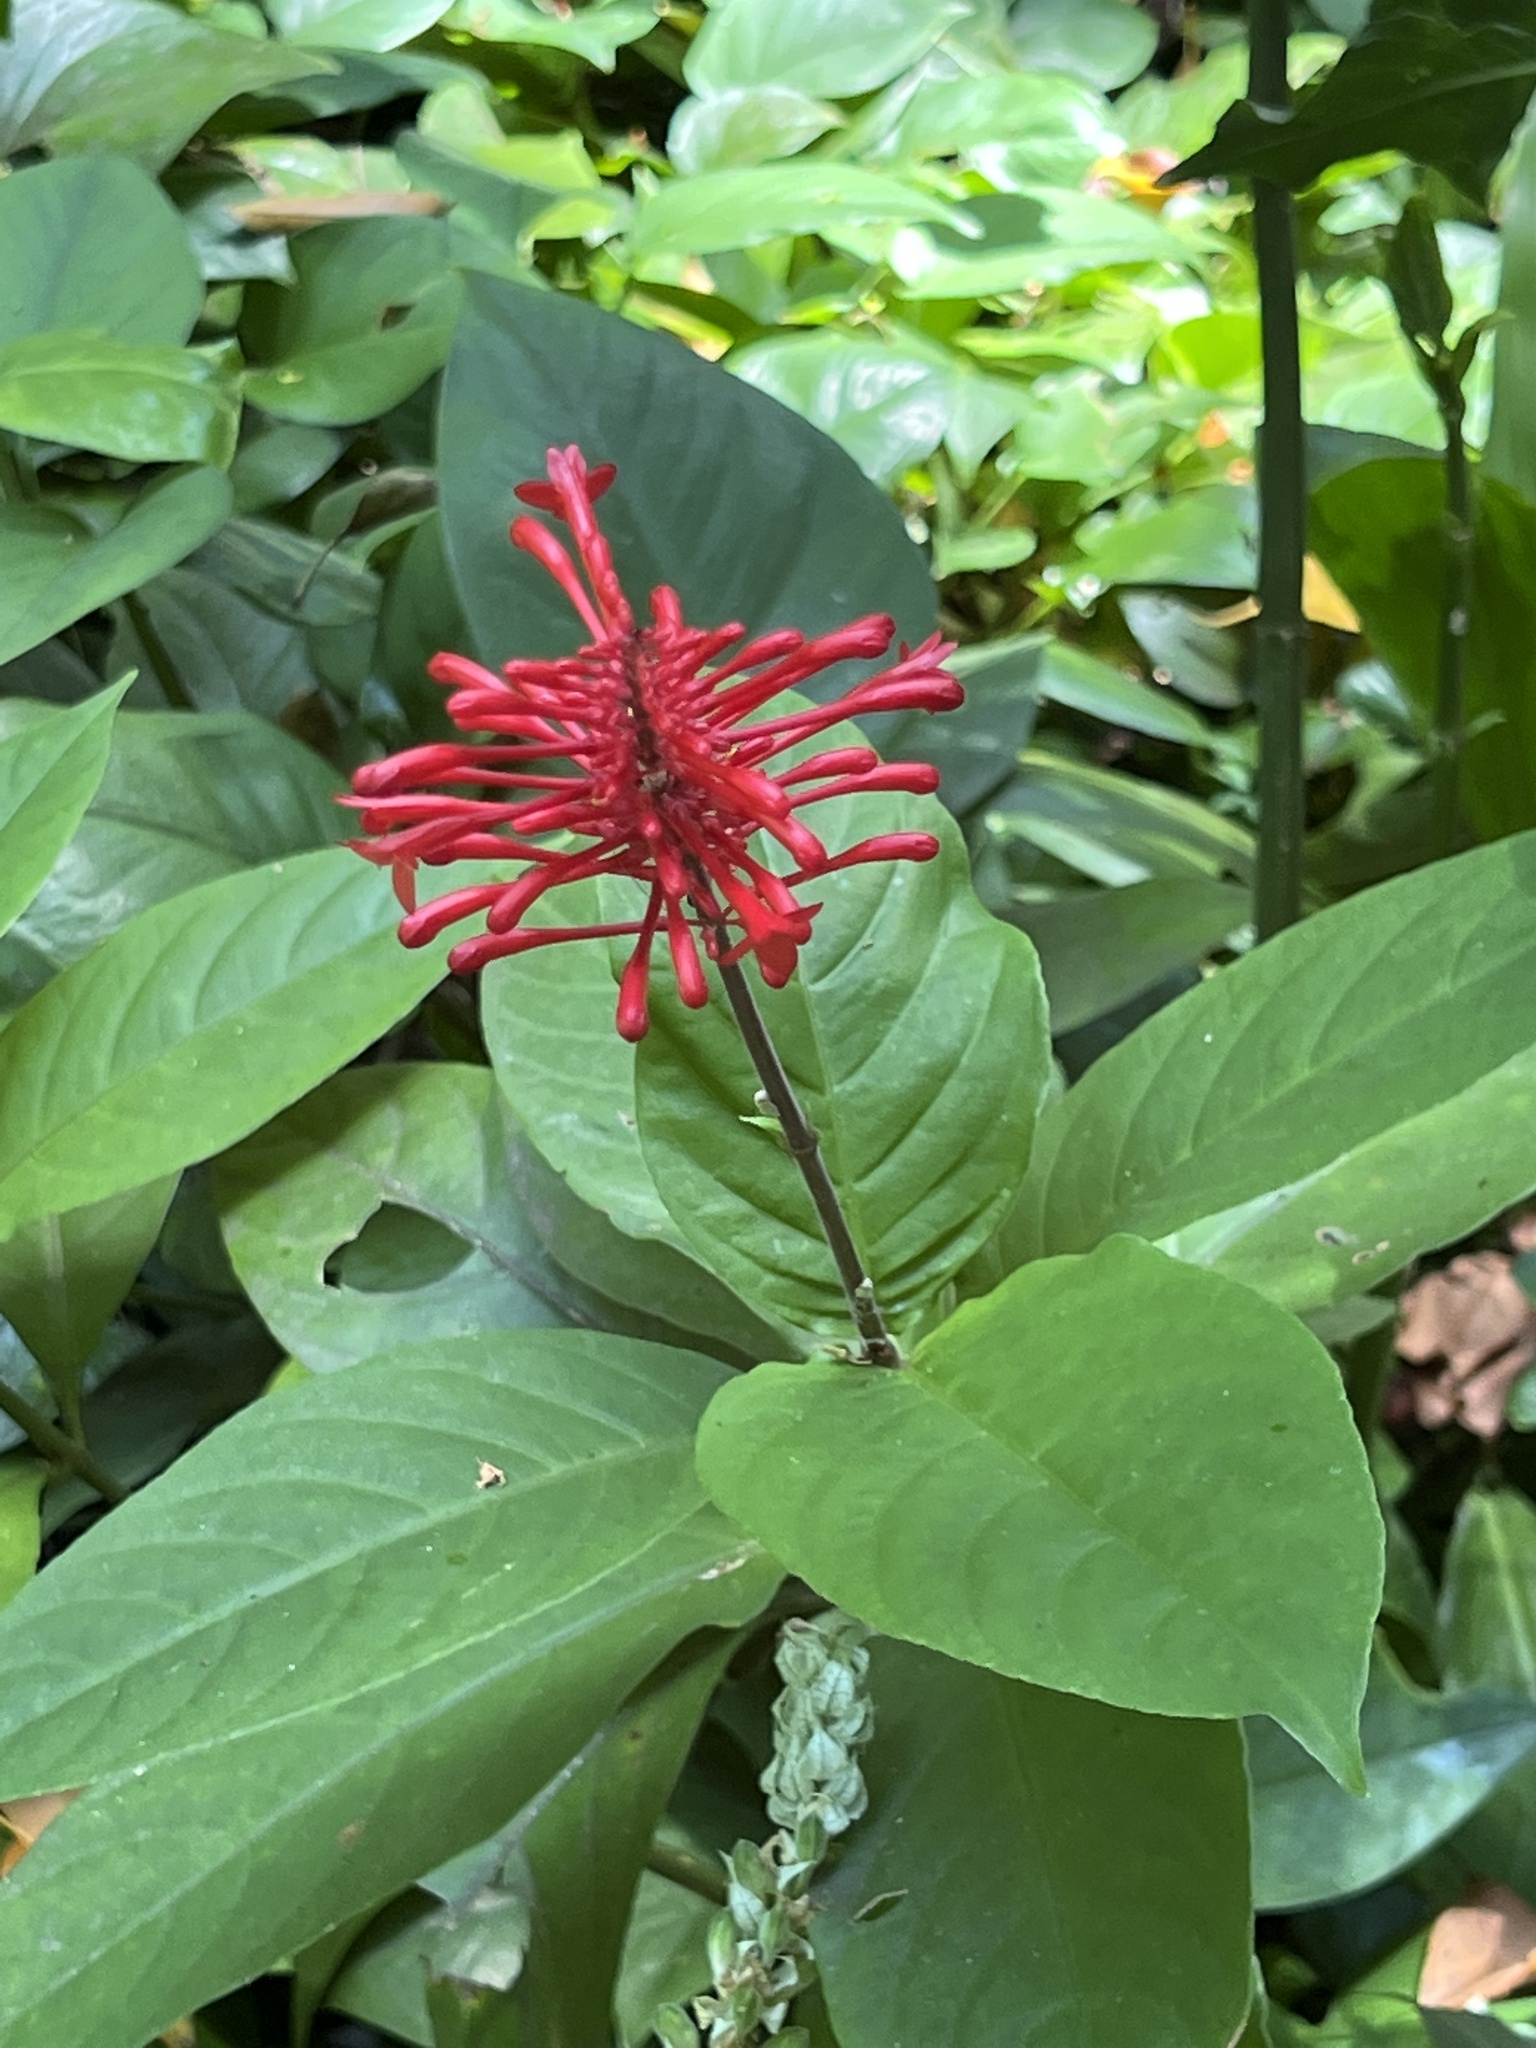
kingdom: Plantae
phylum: Tracheophyta
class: Magnoliopsida
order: Lamiales
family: Acanthaceae
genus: Odontonema
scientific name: Odontonema cuspidatum
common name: Mottled toothedthread
